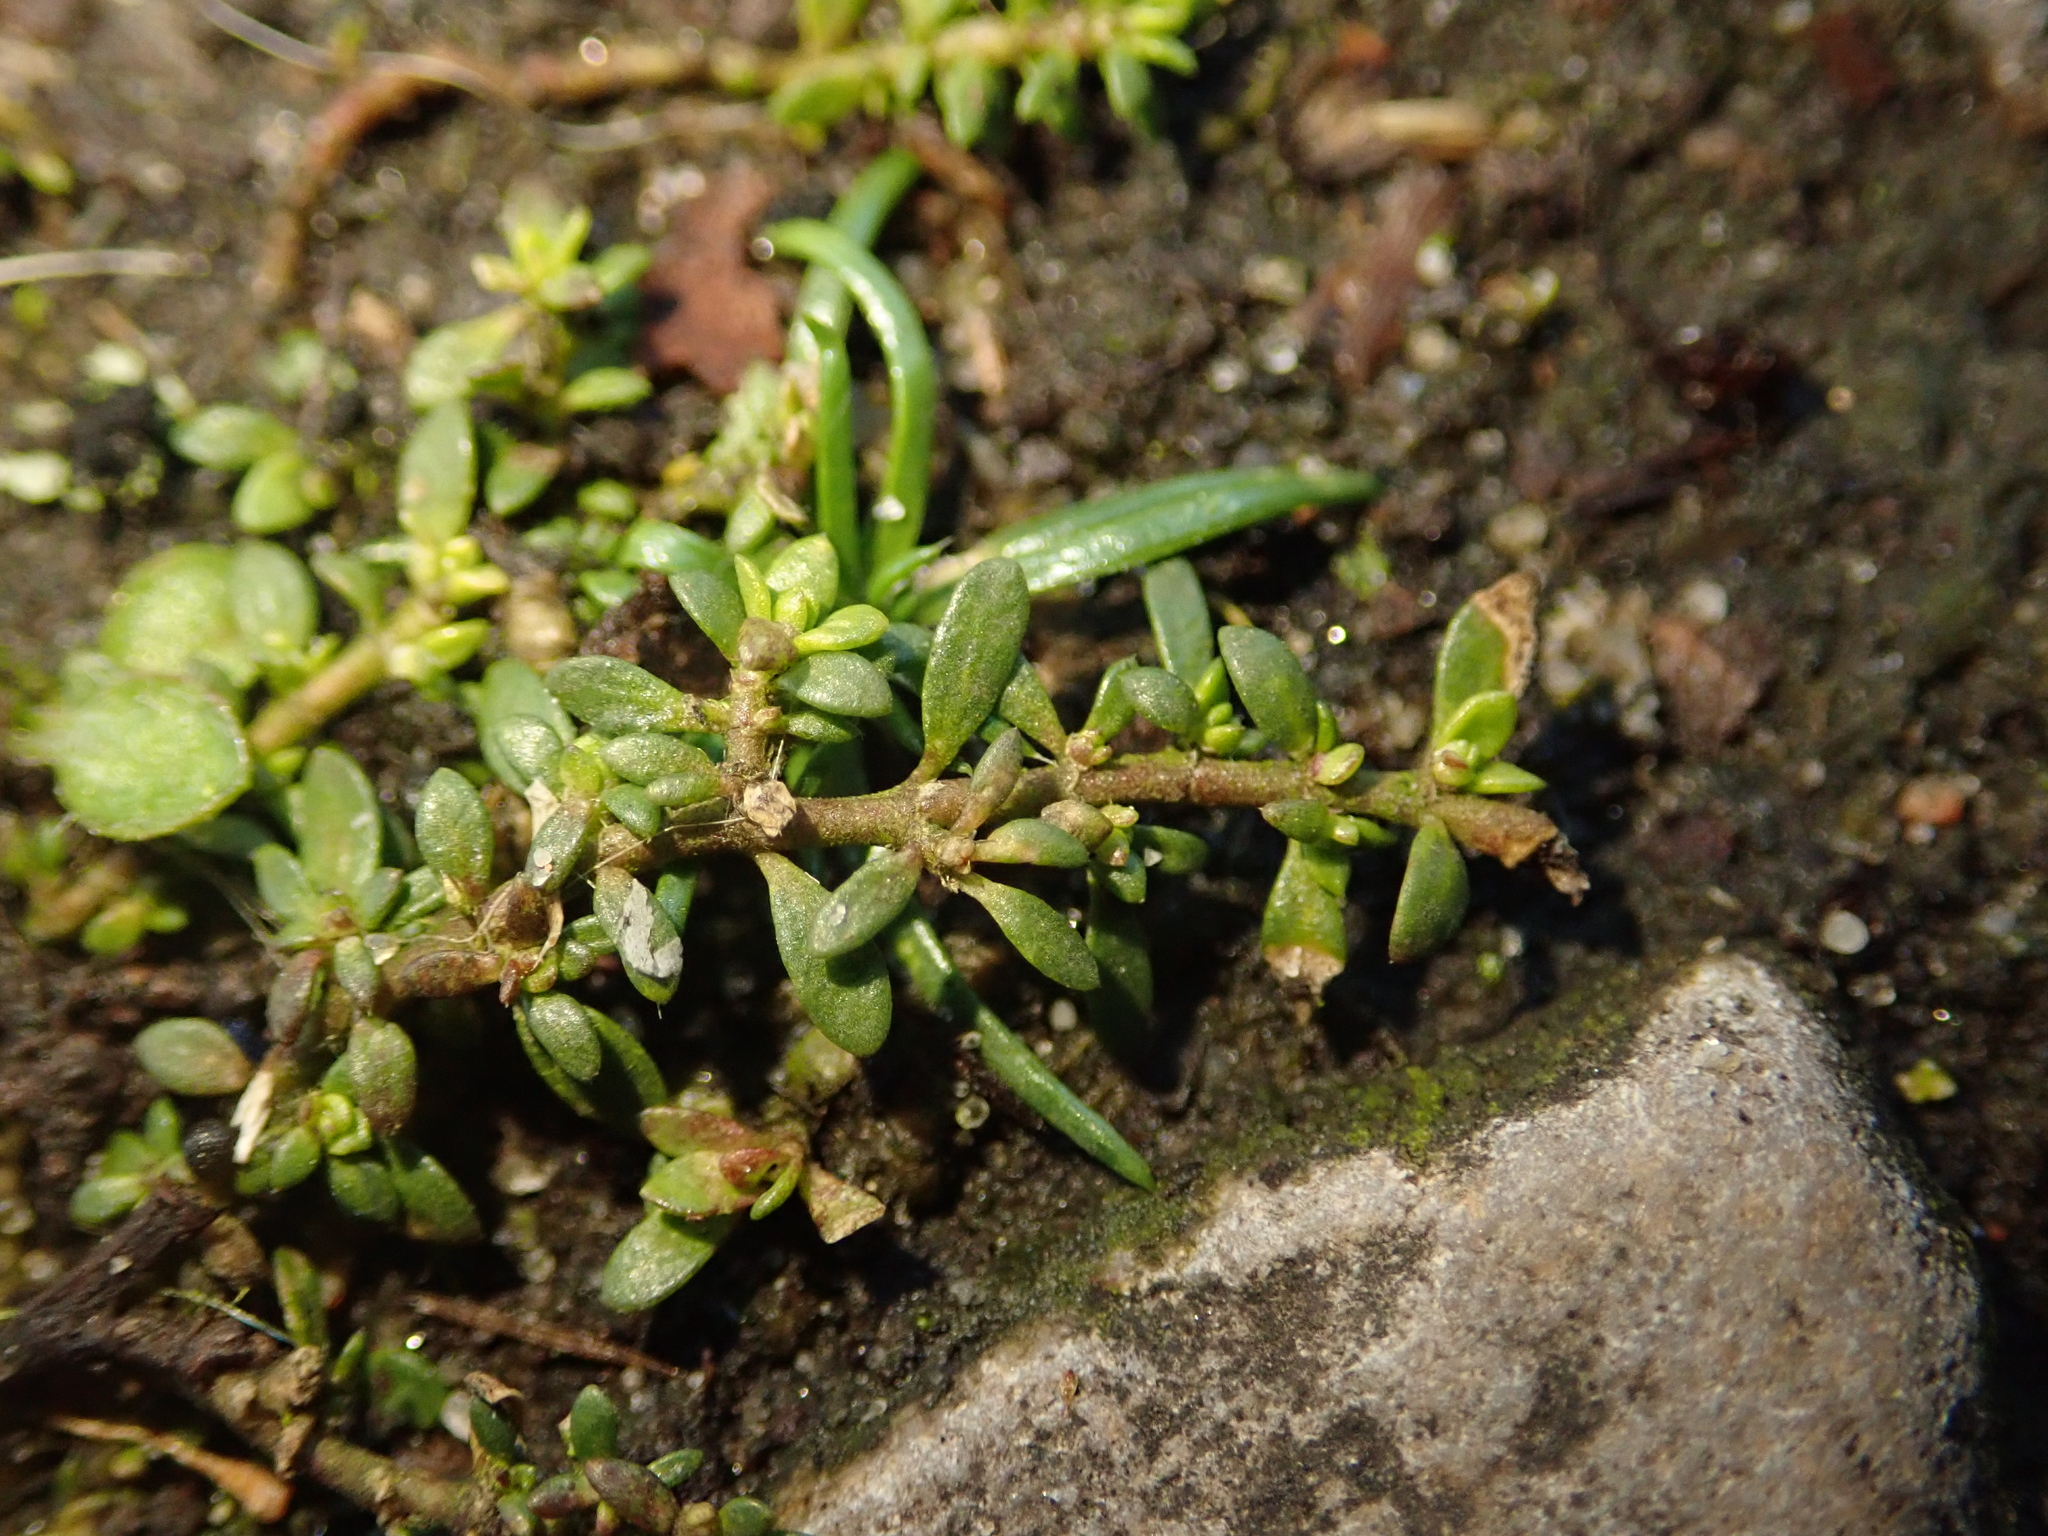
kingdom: Plantae
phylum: Tracheophyta
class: Magnoliopsida
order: Caryophyllales
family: Caryophyllaceae
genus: Herniaria
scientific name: Herniaria glabra
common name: Smooth rupturewort
